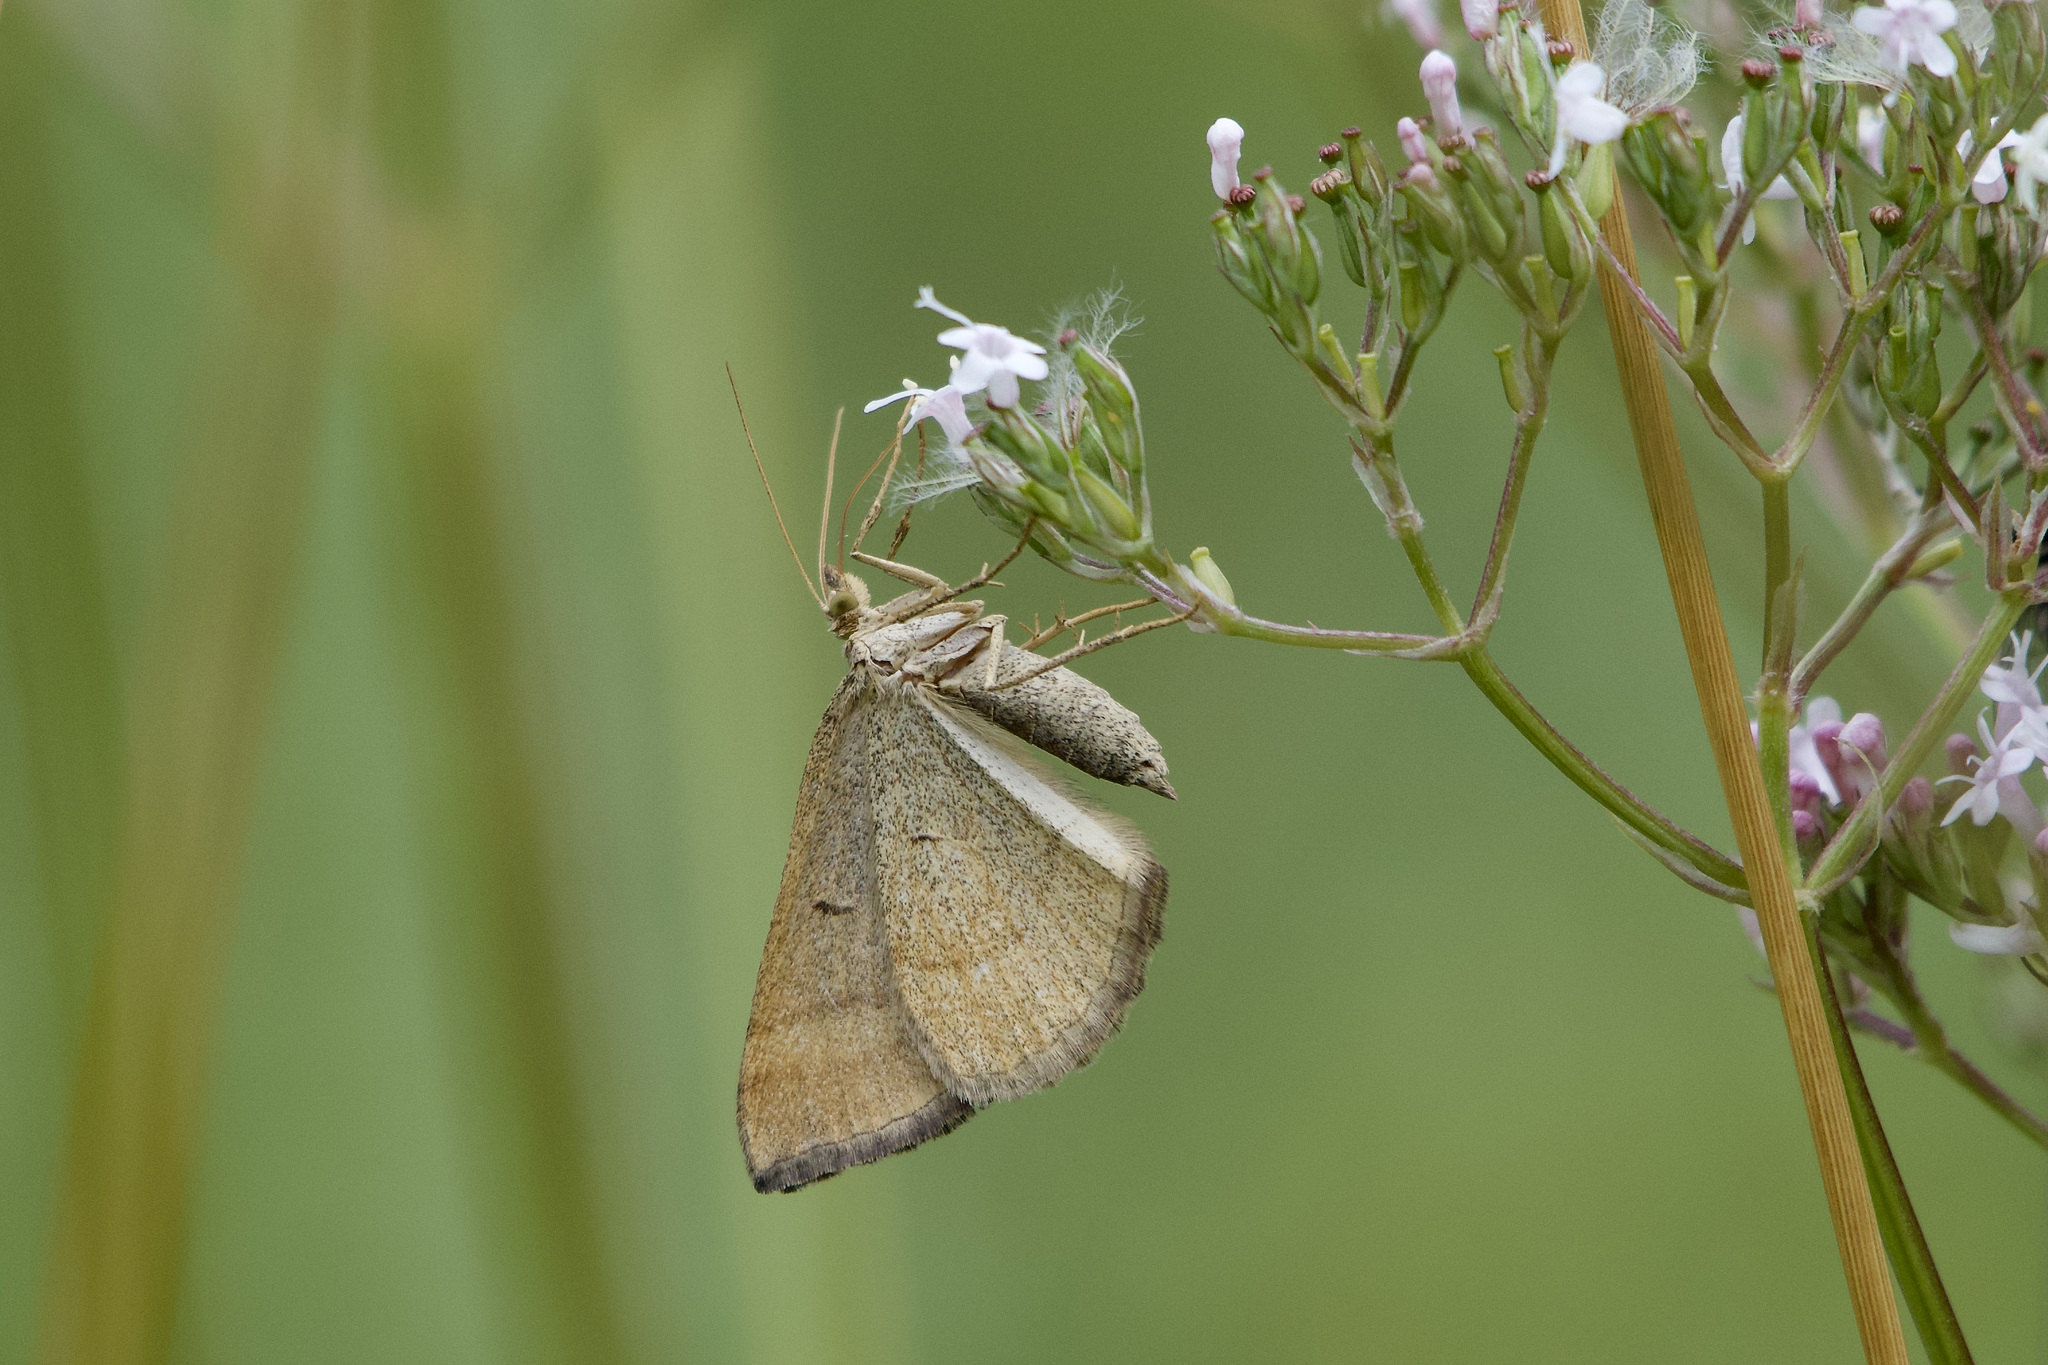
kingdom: Animalia
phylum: Arthropoda
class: Insecta
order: Lepidoptera
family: Geometridae
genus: Scotopteryx
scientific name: Scotopteryx chenopodiata
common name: Shaded broad-bar
